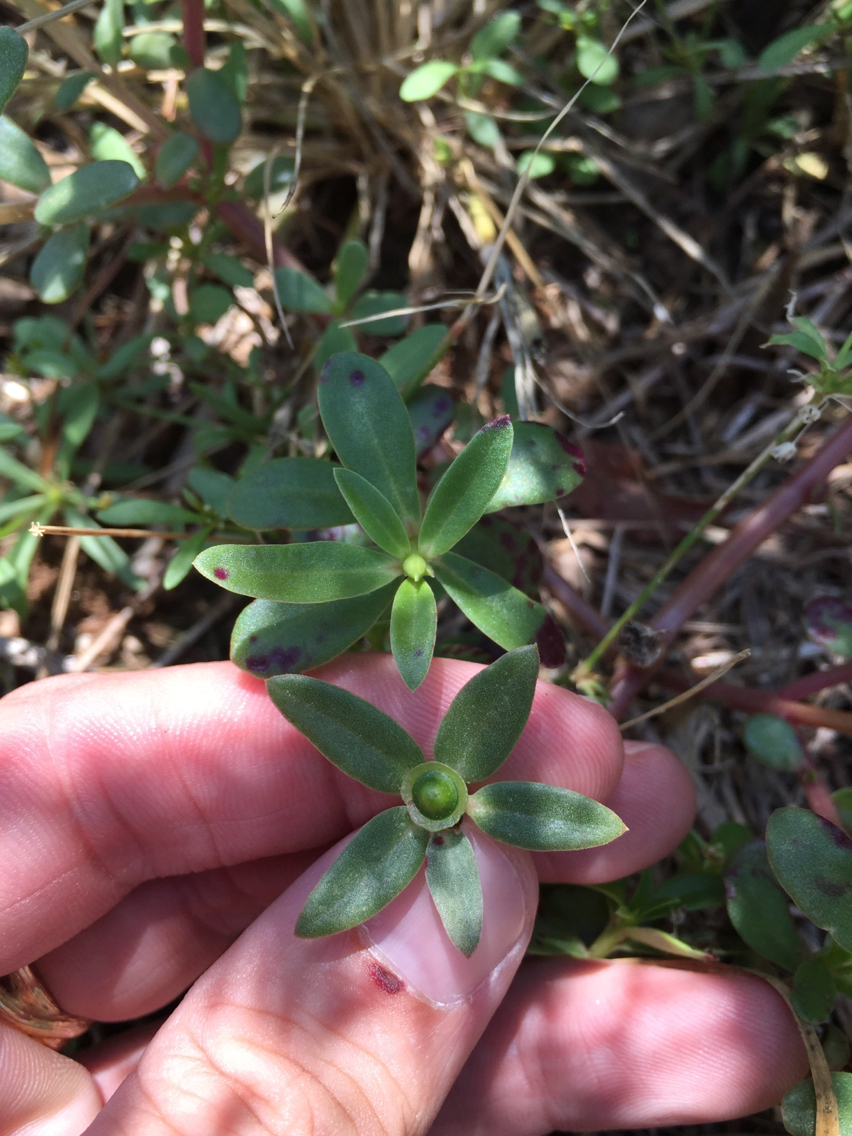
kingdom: Plantae
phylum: Tracheophyta
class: Magnoliopsida
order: Caryophyllales
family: Portulacaceae
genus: Portulaca
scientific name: Portulaca umbraticola
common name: Wingpod purslane
